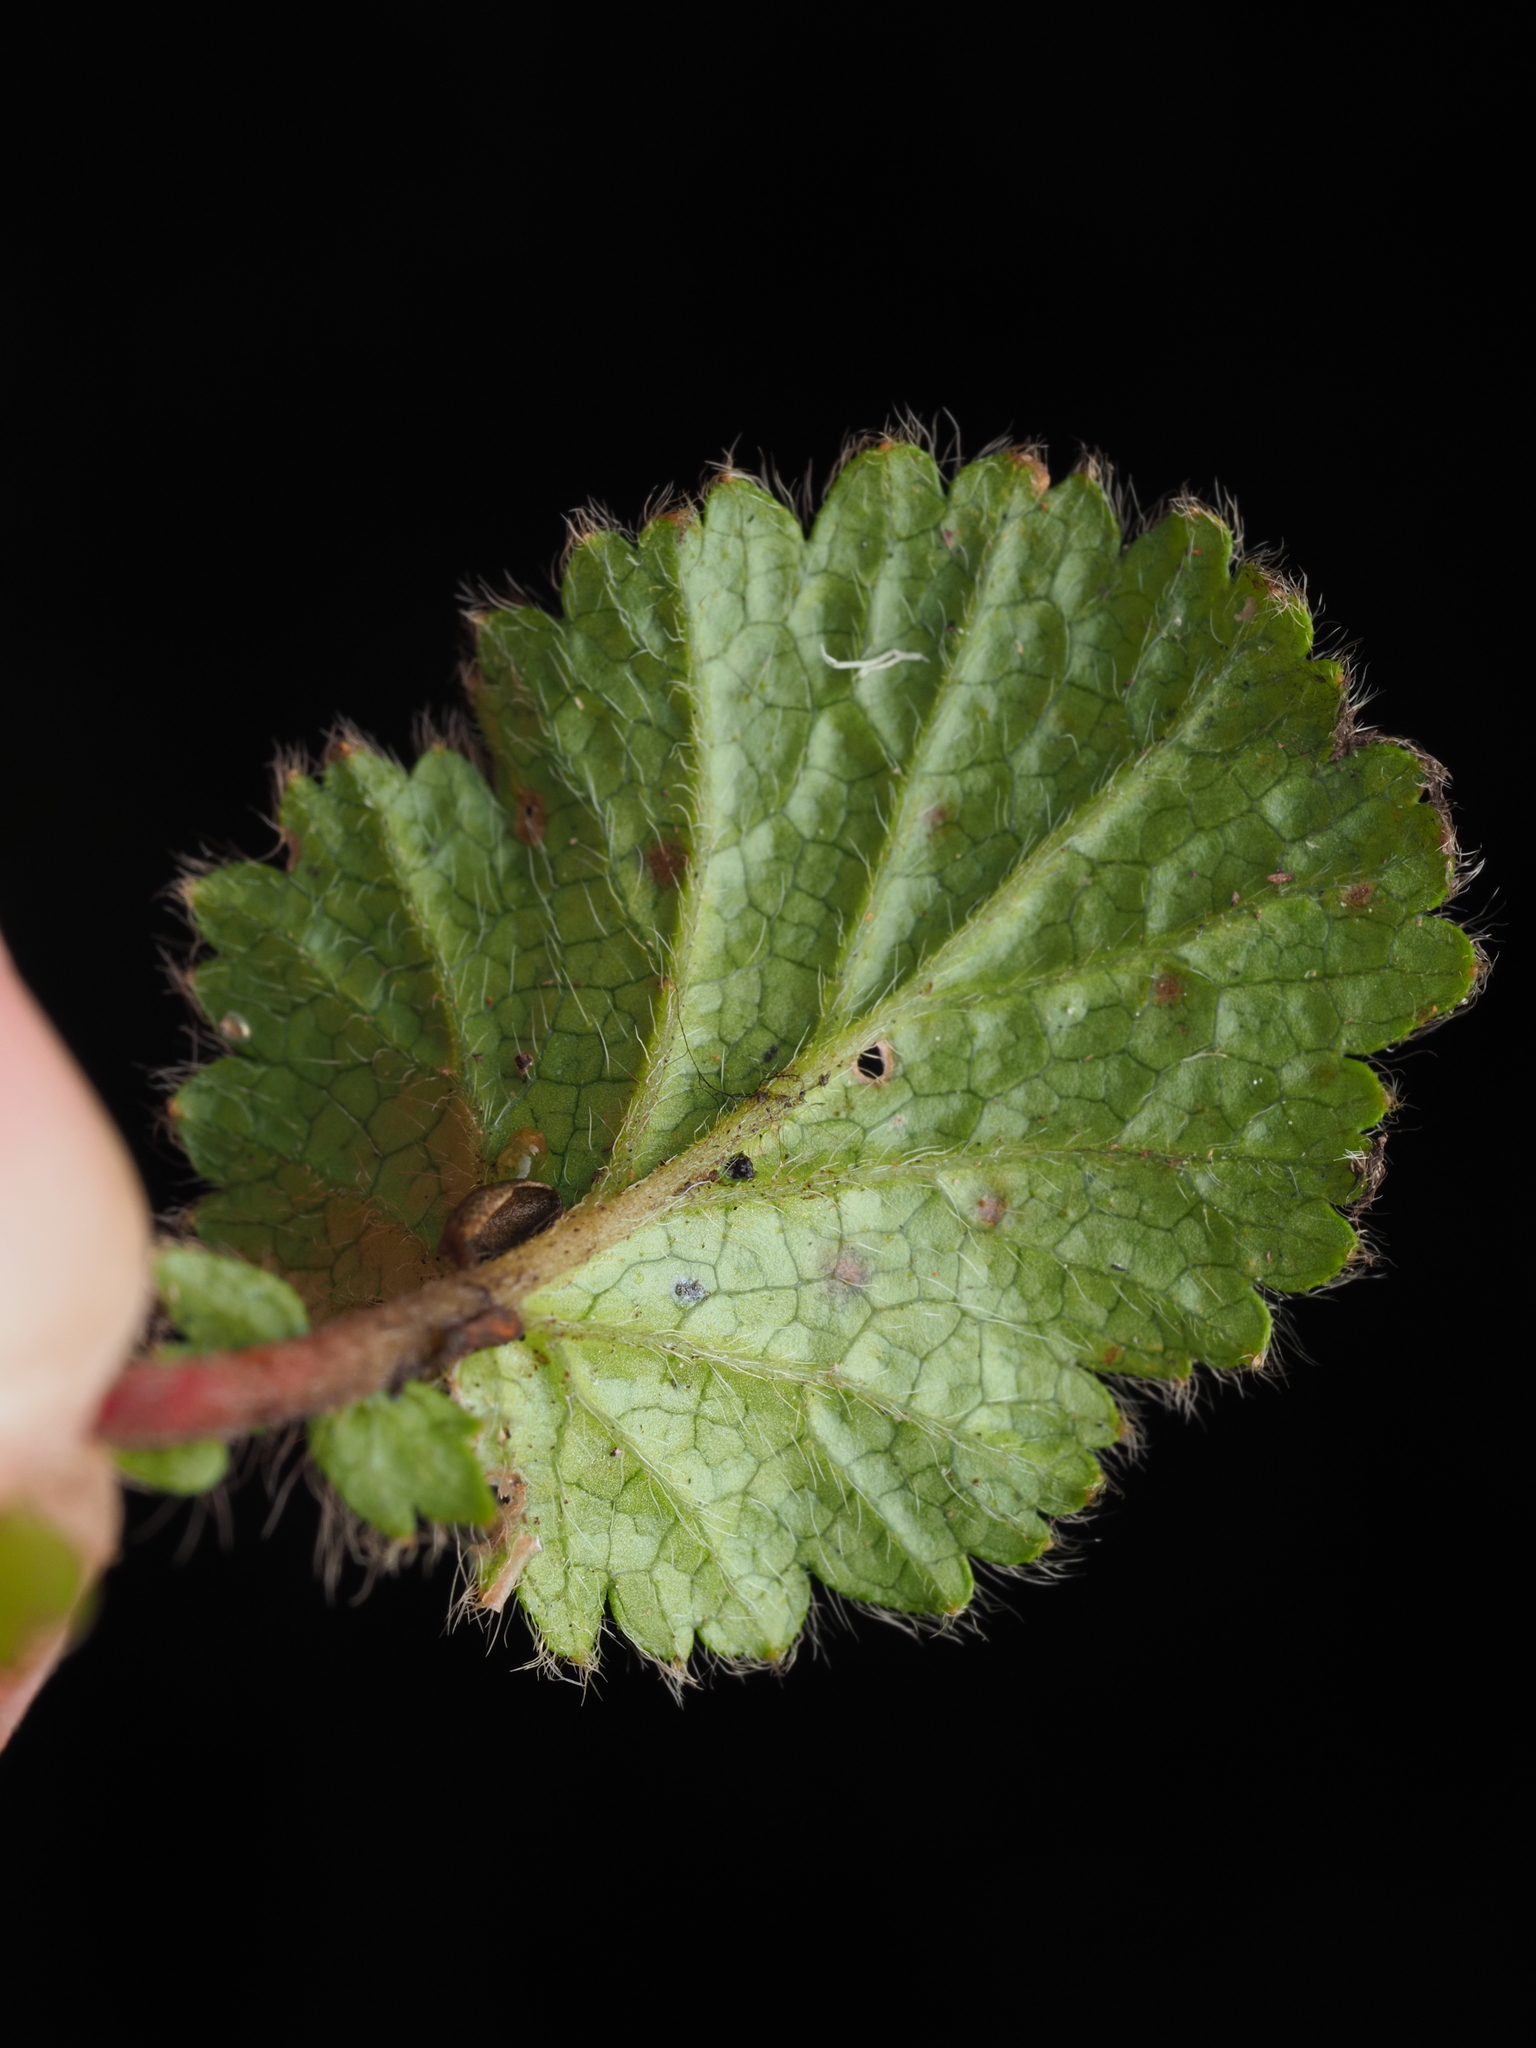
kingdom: Plantae
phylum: Tracheophyta
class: Magnoliopsida
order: Rosales
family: Rosaceae
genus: Geum
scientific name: Geum cockaynei
